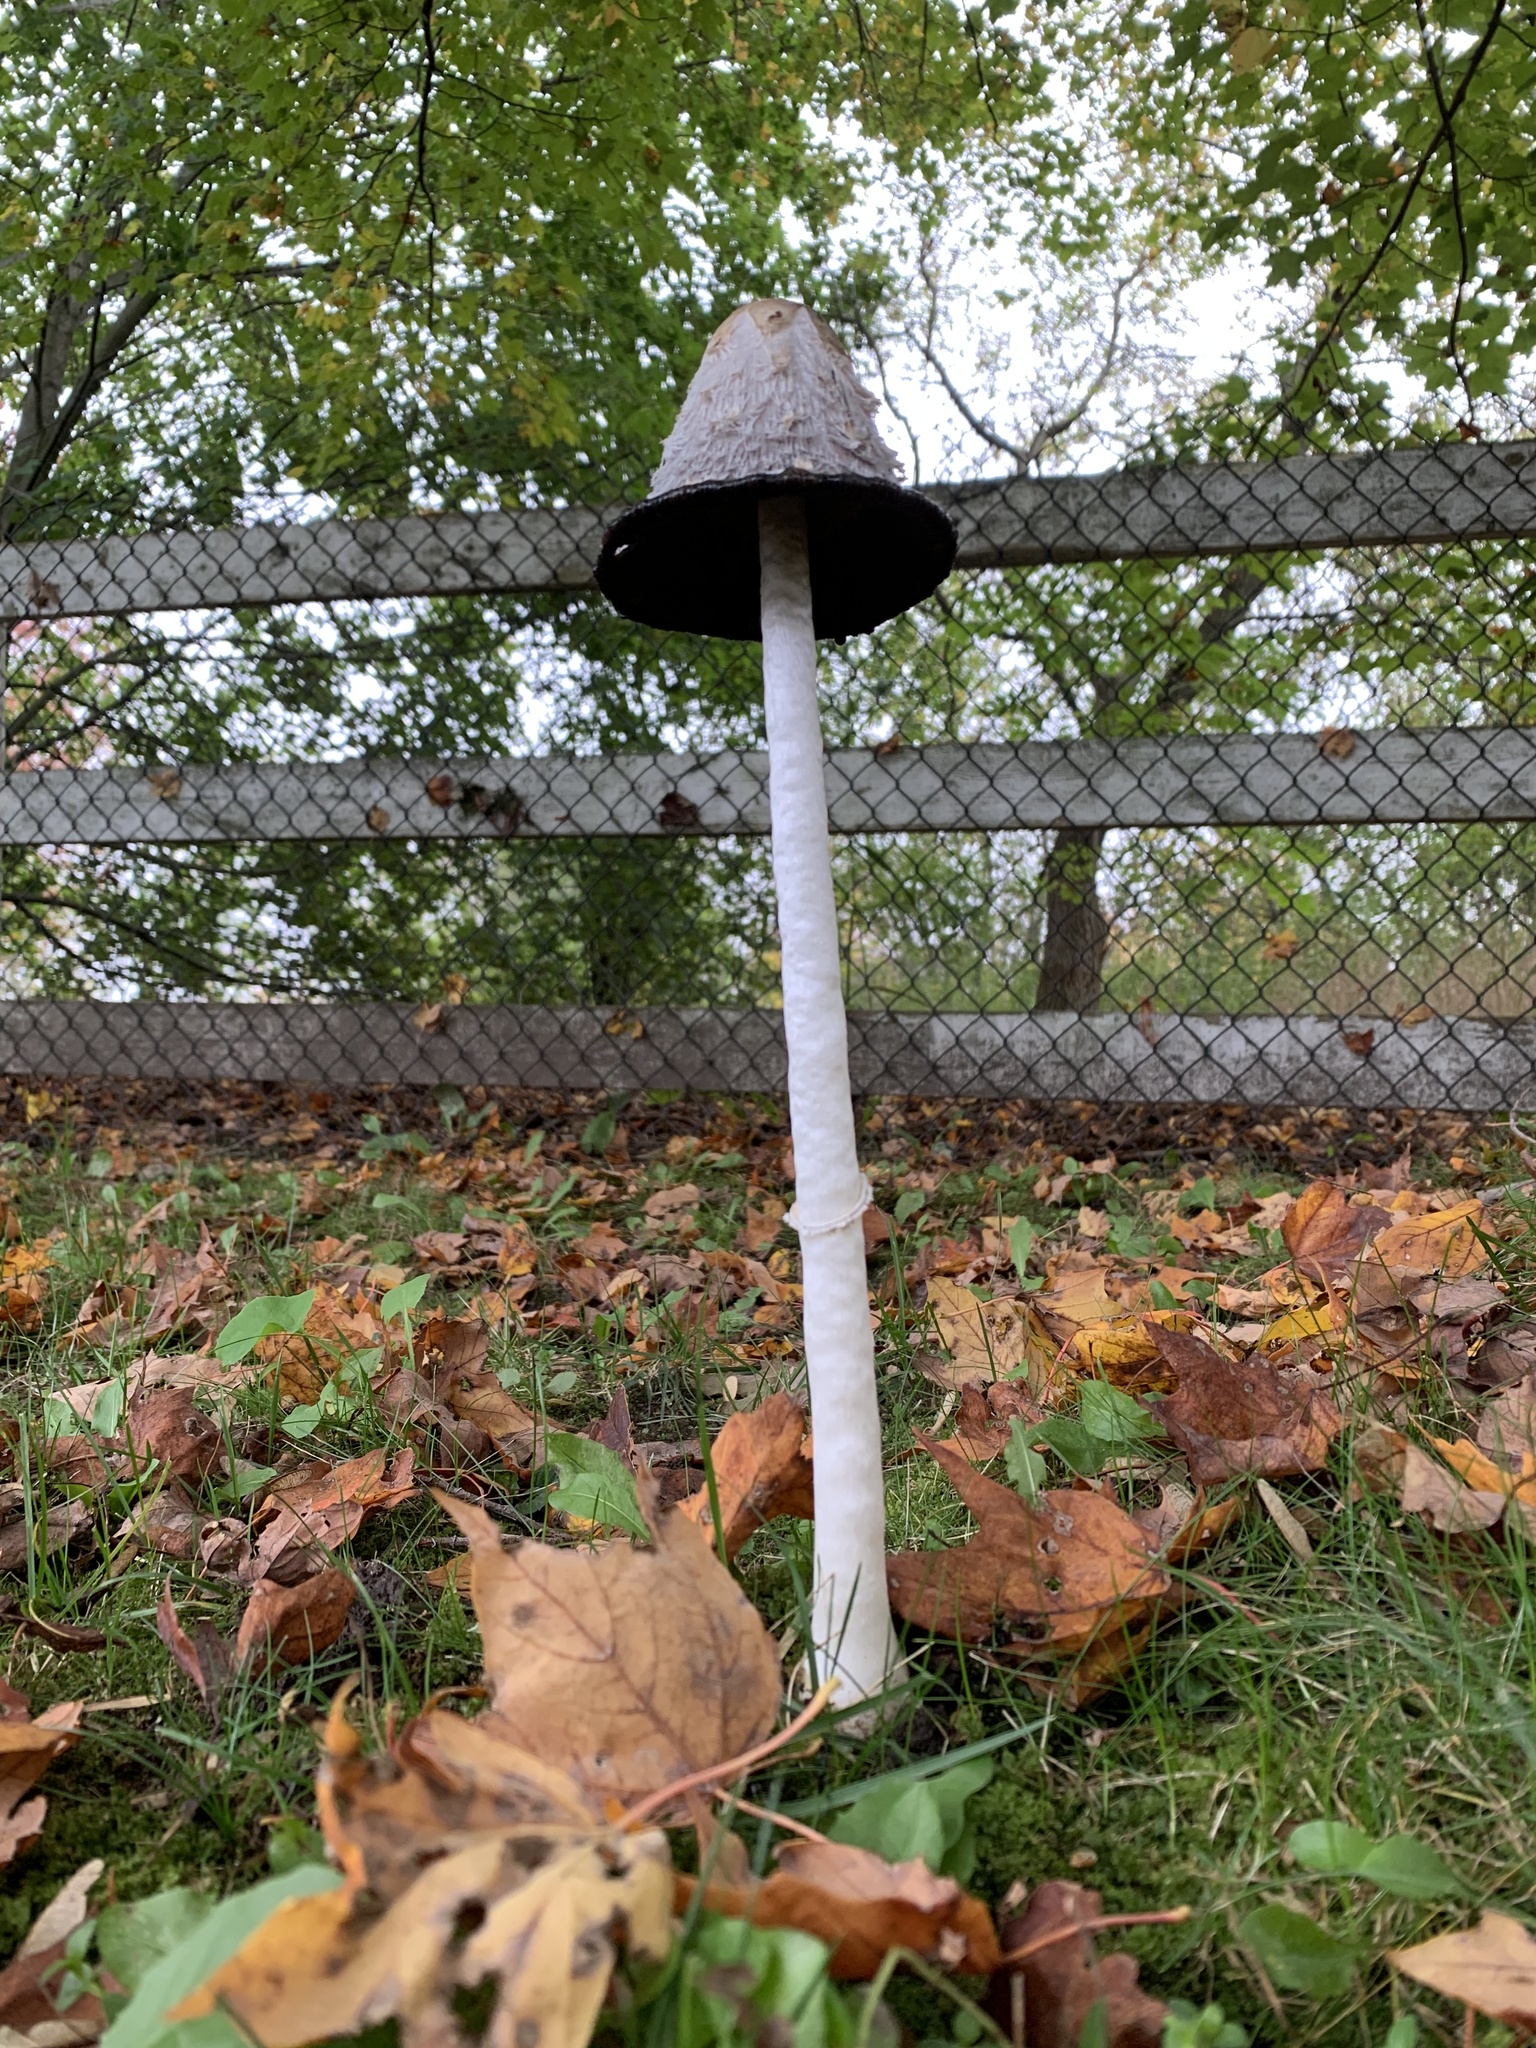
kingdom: Fungi
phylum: Basidiomycota
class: Agaricomycetes
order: Agaricales
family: Agaricaceae
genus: Coprinus
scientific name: Coprinus comatus
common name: Lawyer's wig
